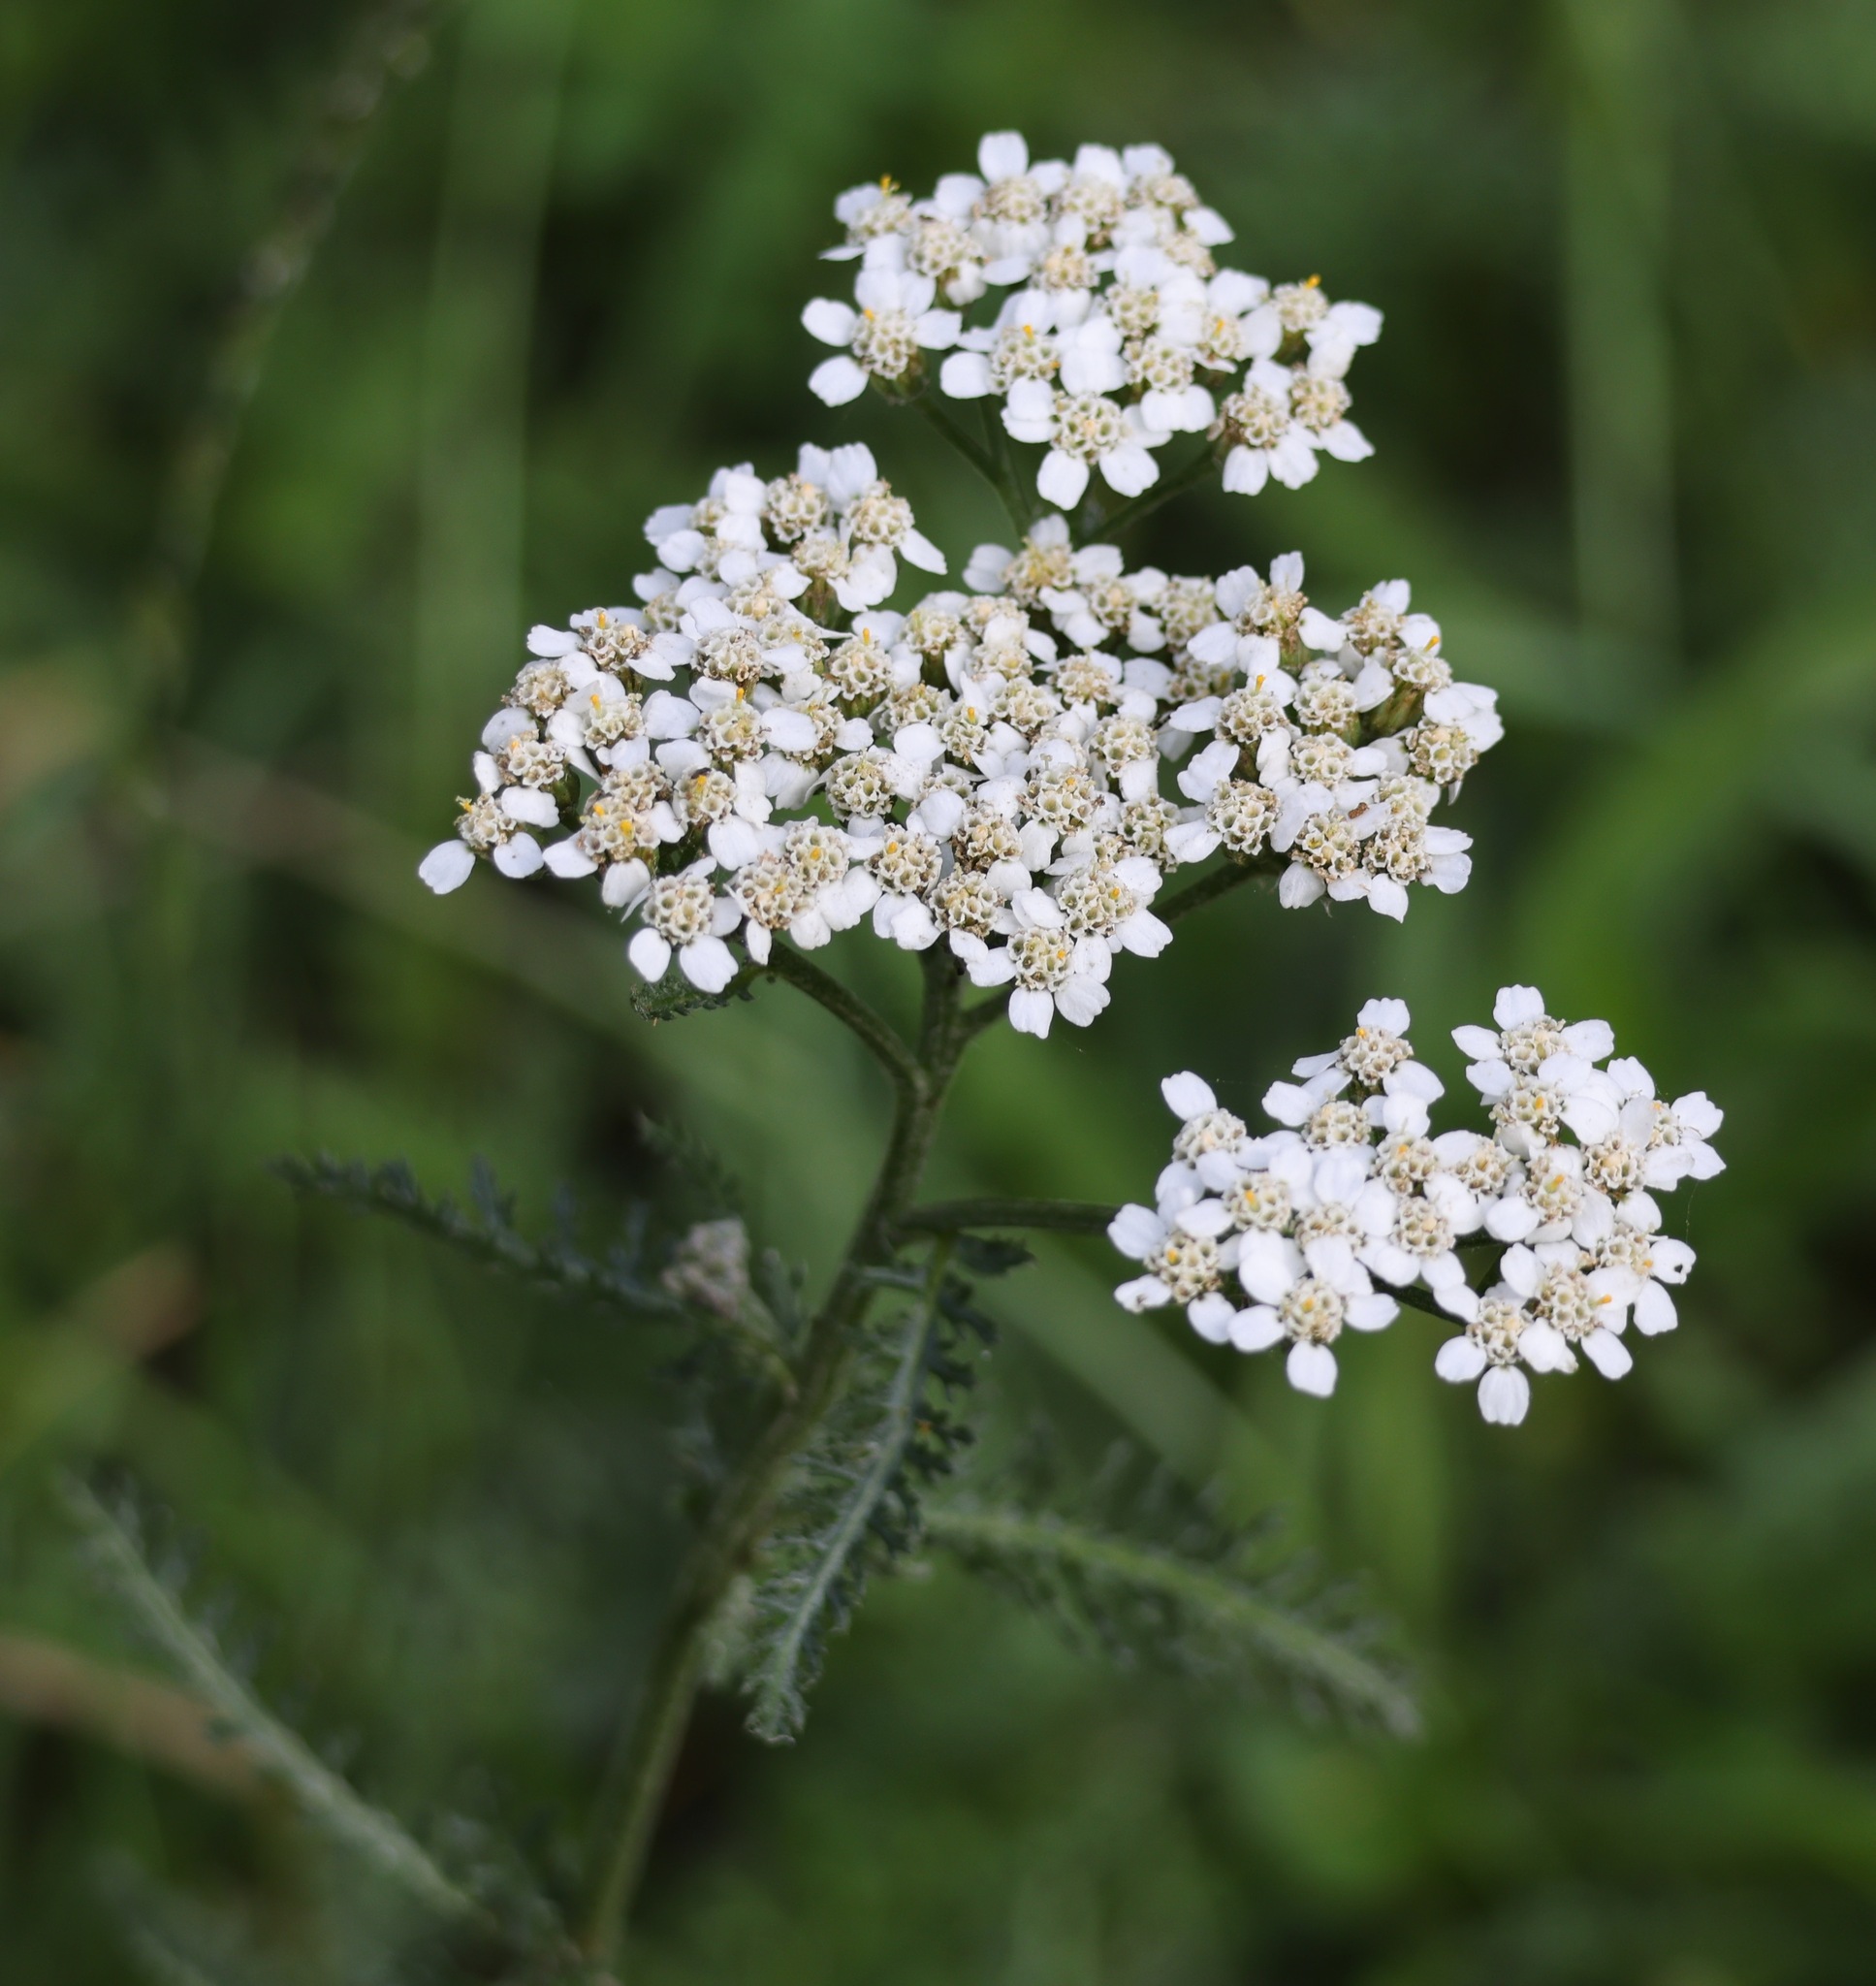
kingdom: Plantae
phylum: Tracheophyta
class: Magnoliopsida
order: Asterales
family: Asteraceae
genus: Achillea
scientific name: Achillea millefolium
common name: Yarrow
